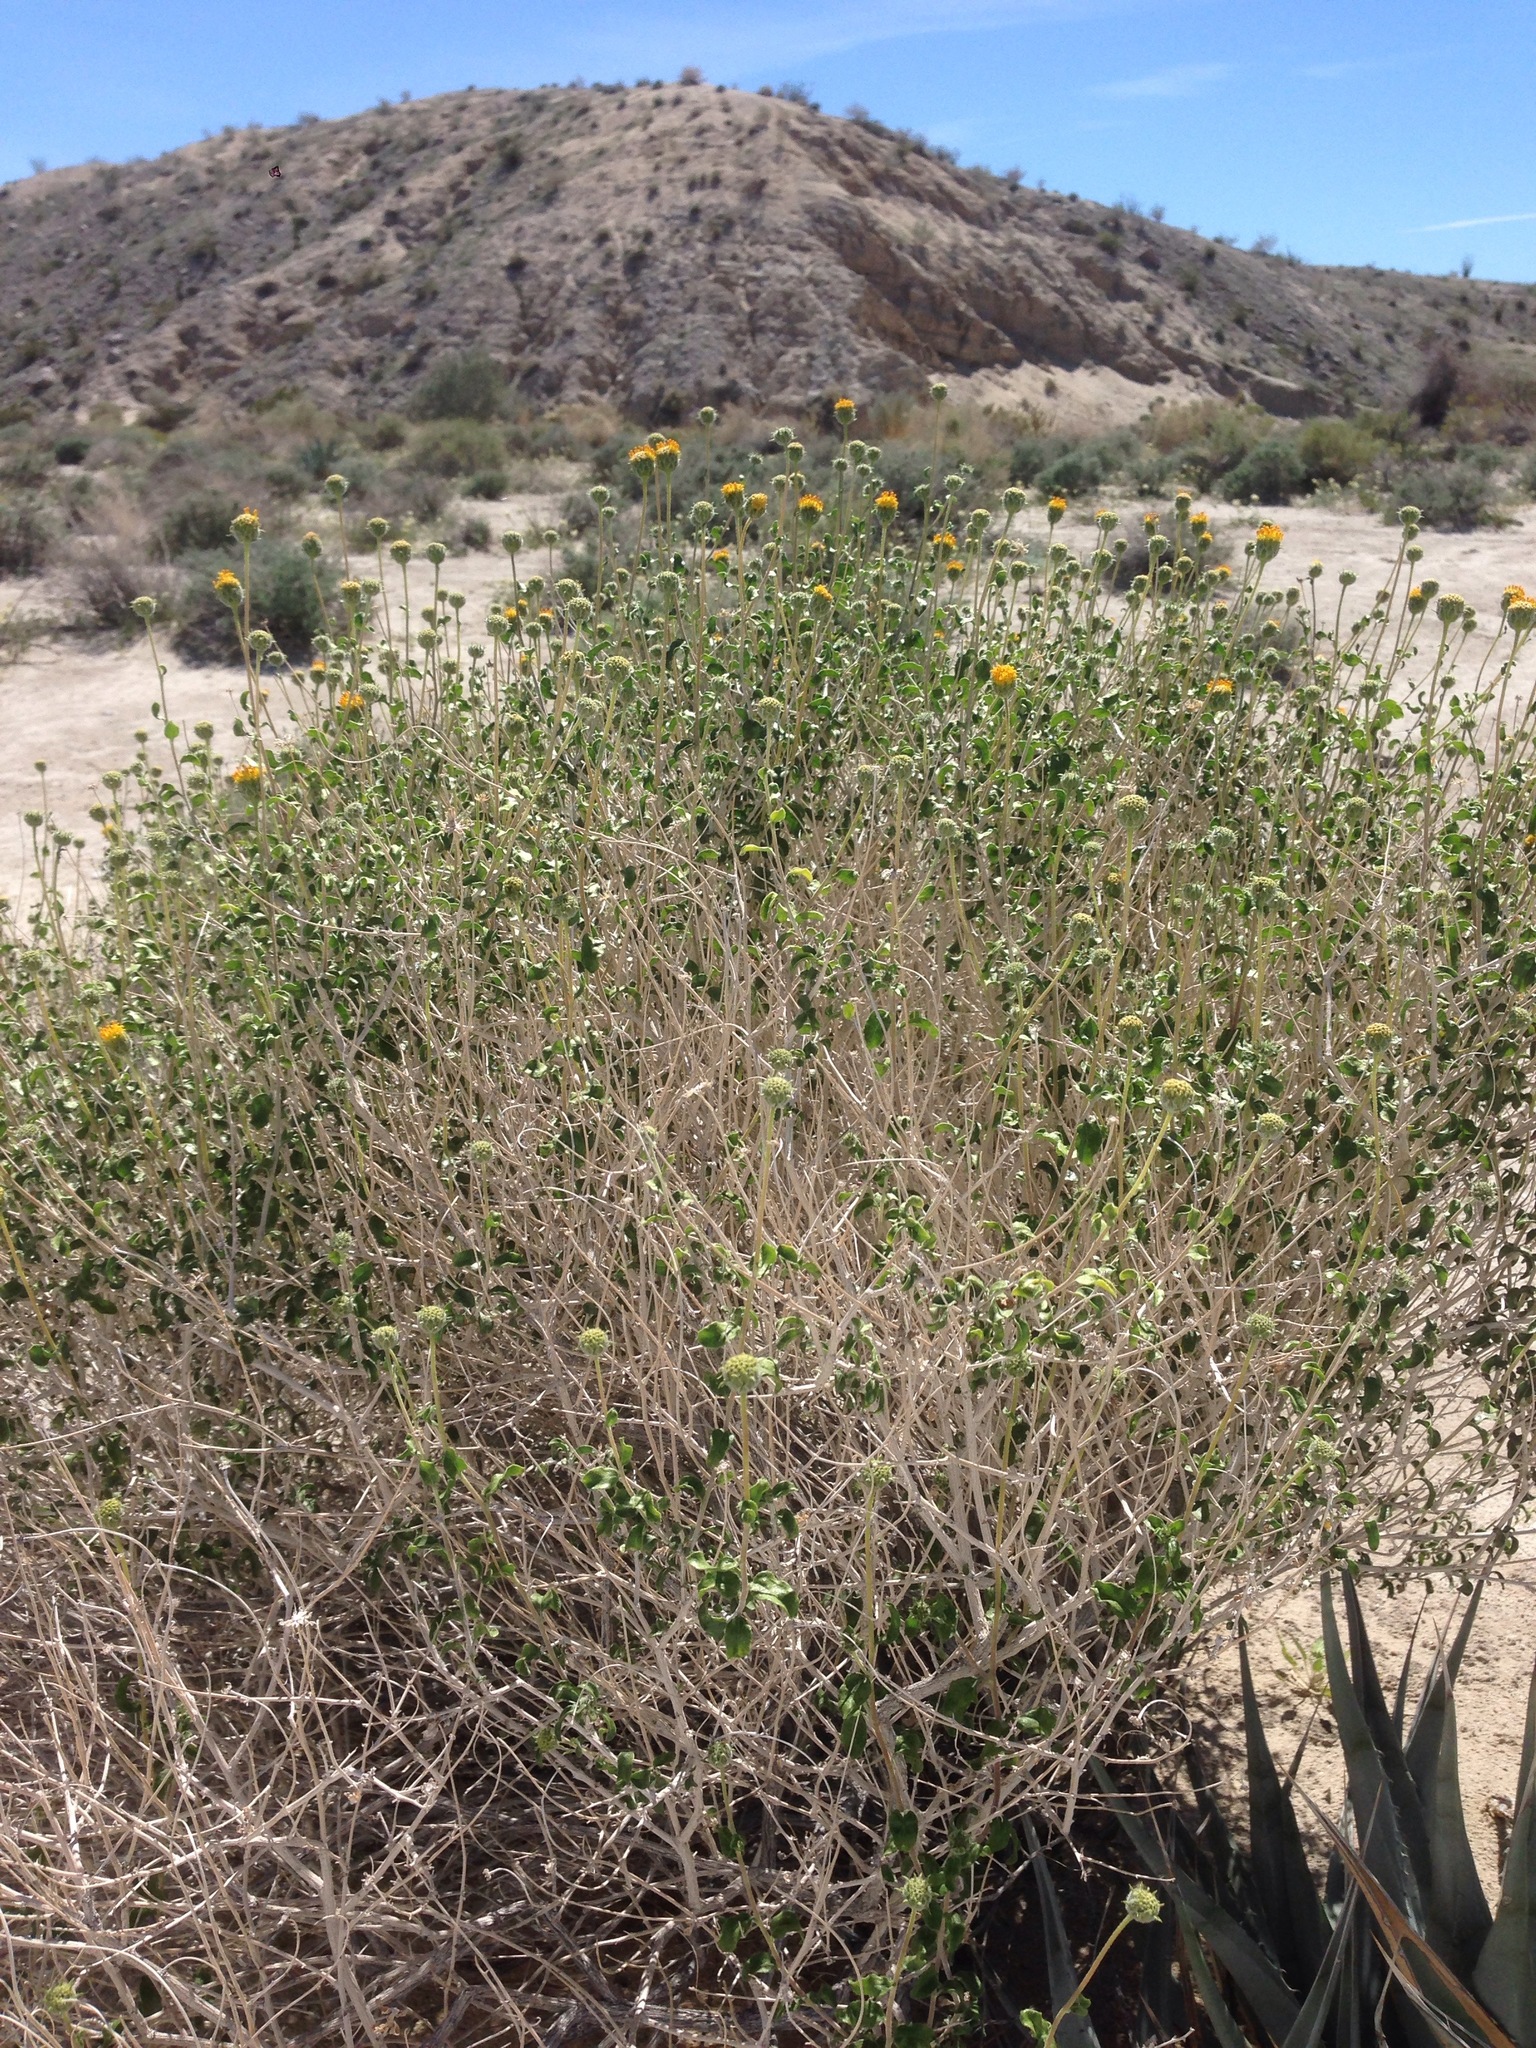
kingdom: Plantae
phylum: Tracheophyta
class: Magnoliopsida
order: Asterales
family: Asteraceae
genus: Encelia
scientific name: Encelia frutescens
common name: Bush encelia
